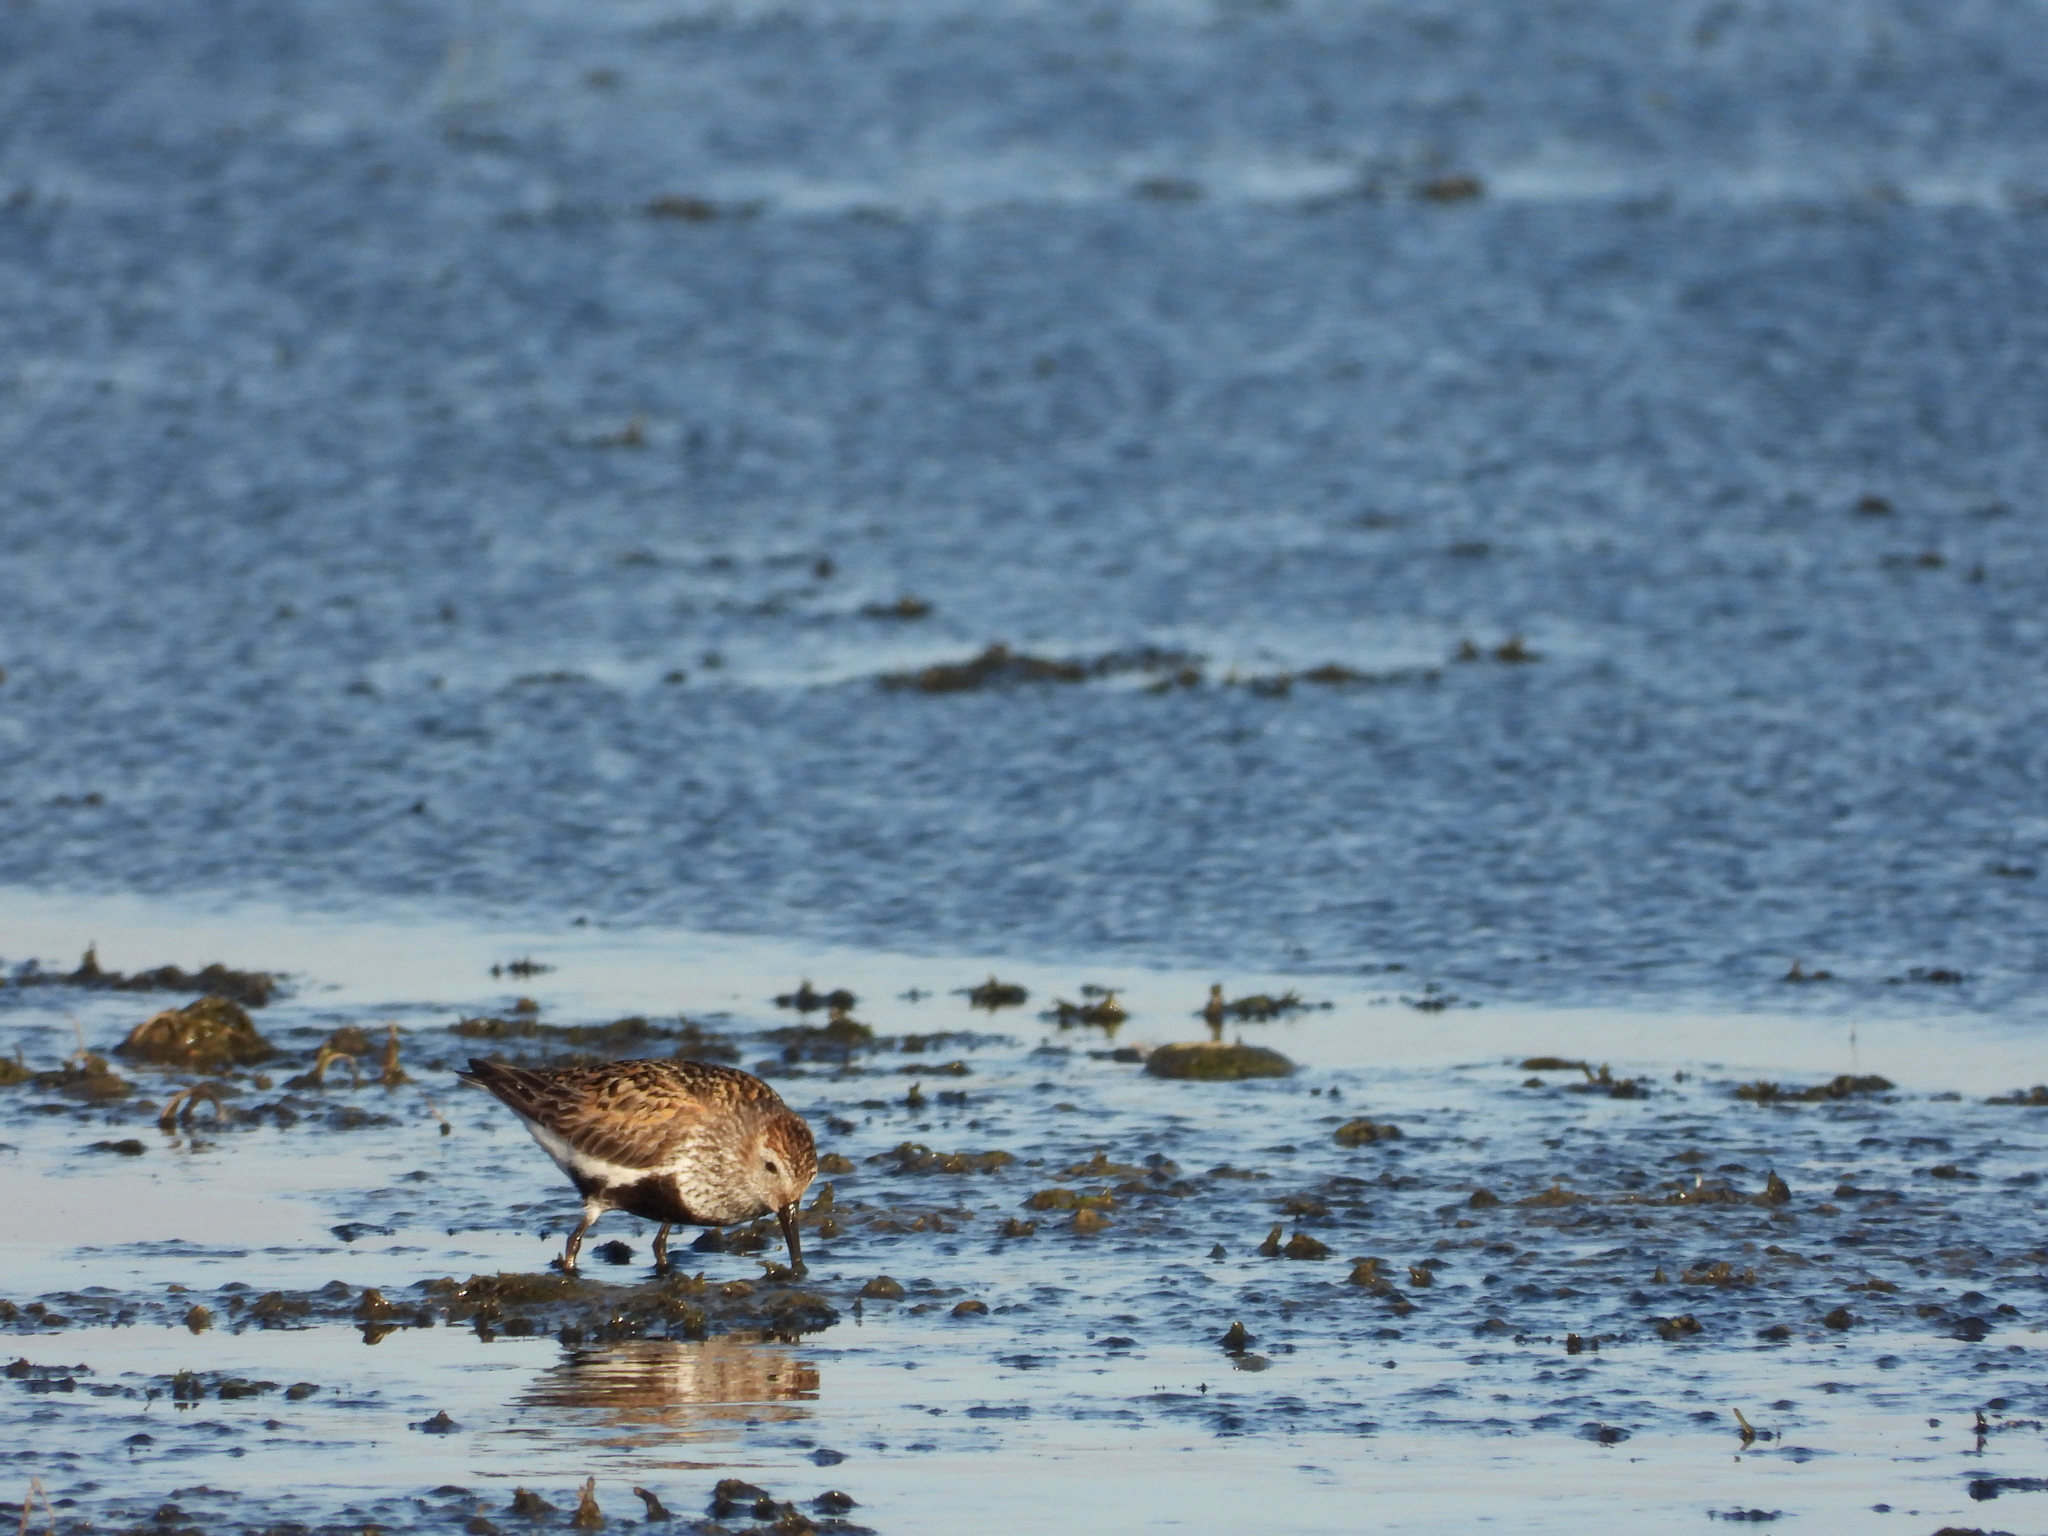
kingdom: Animalia
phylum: Chordata
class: Aves
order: Charadriiformes
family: Scolopacidae
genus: Calidris
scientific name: Calidris alpina
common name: Dunlin
